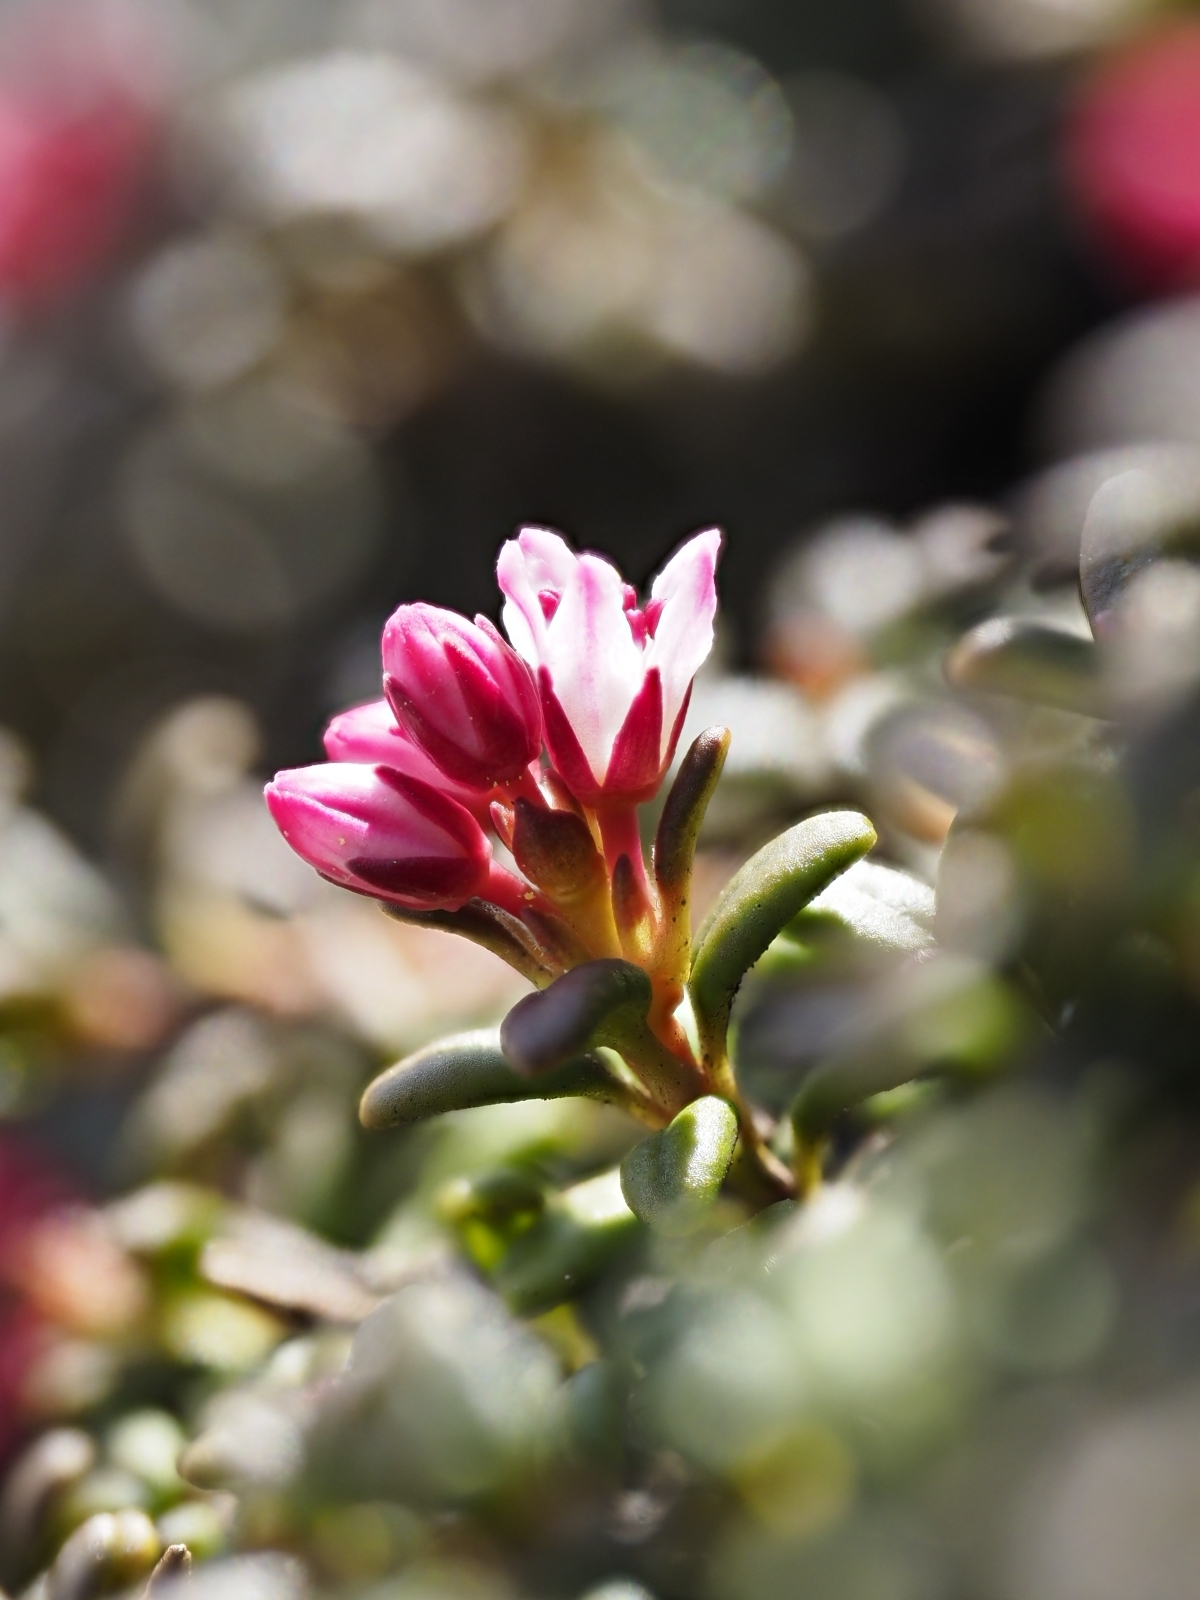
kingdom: Plantae
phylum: Tracheophyta
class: Magnoliopsida
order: Ericales
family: Ericaceae
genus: Kalmia
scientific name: Kalmia procumbens
